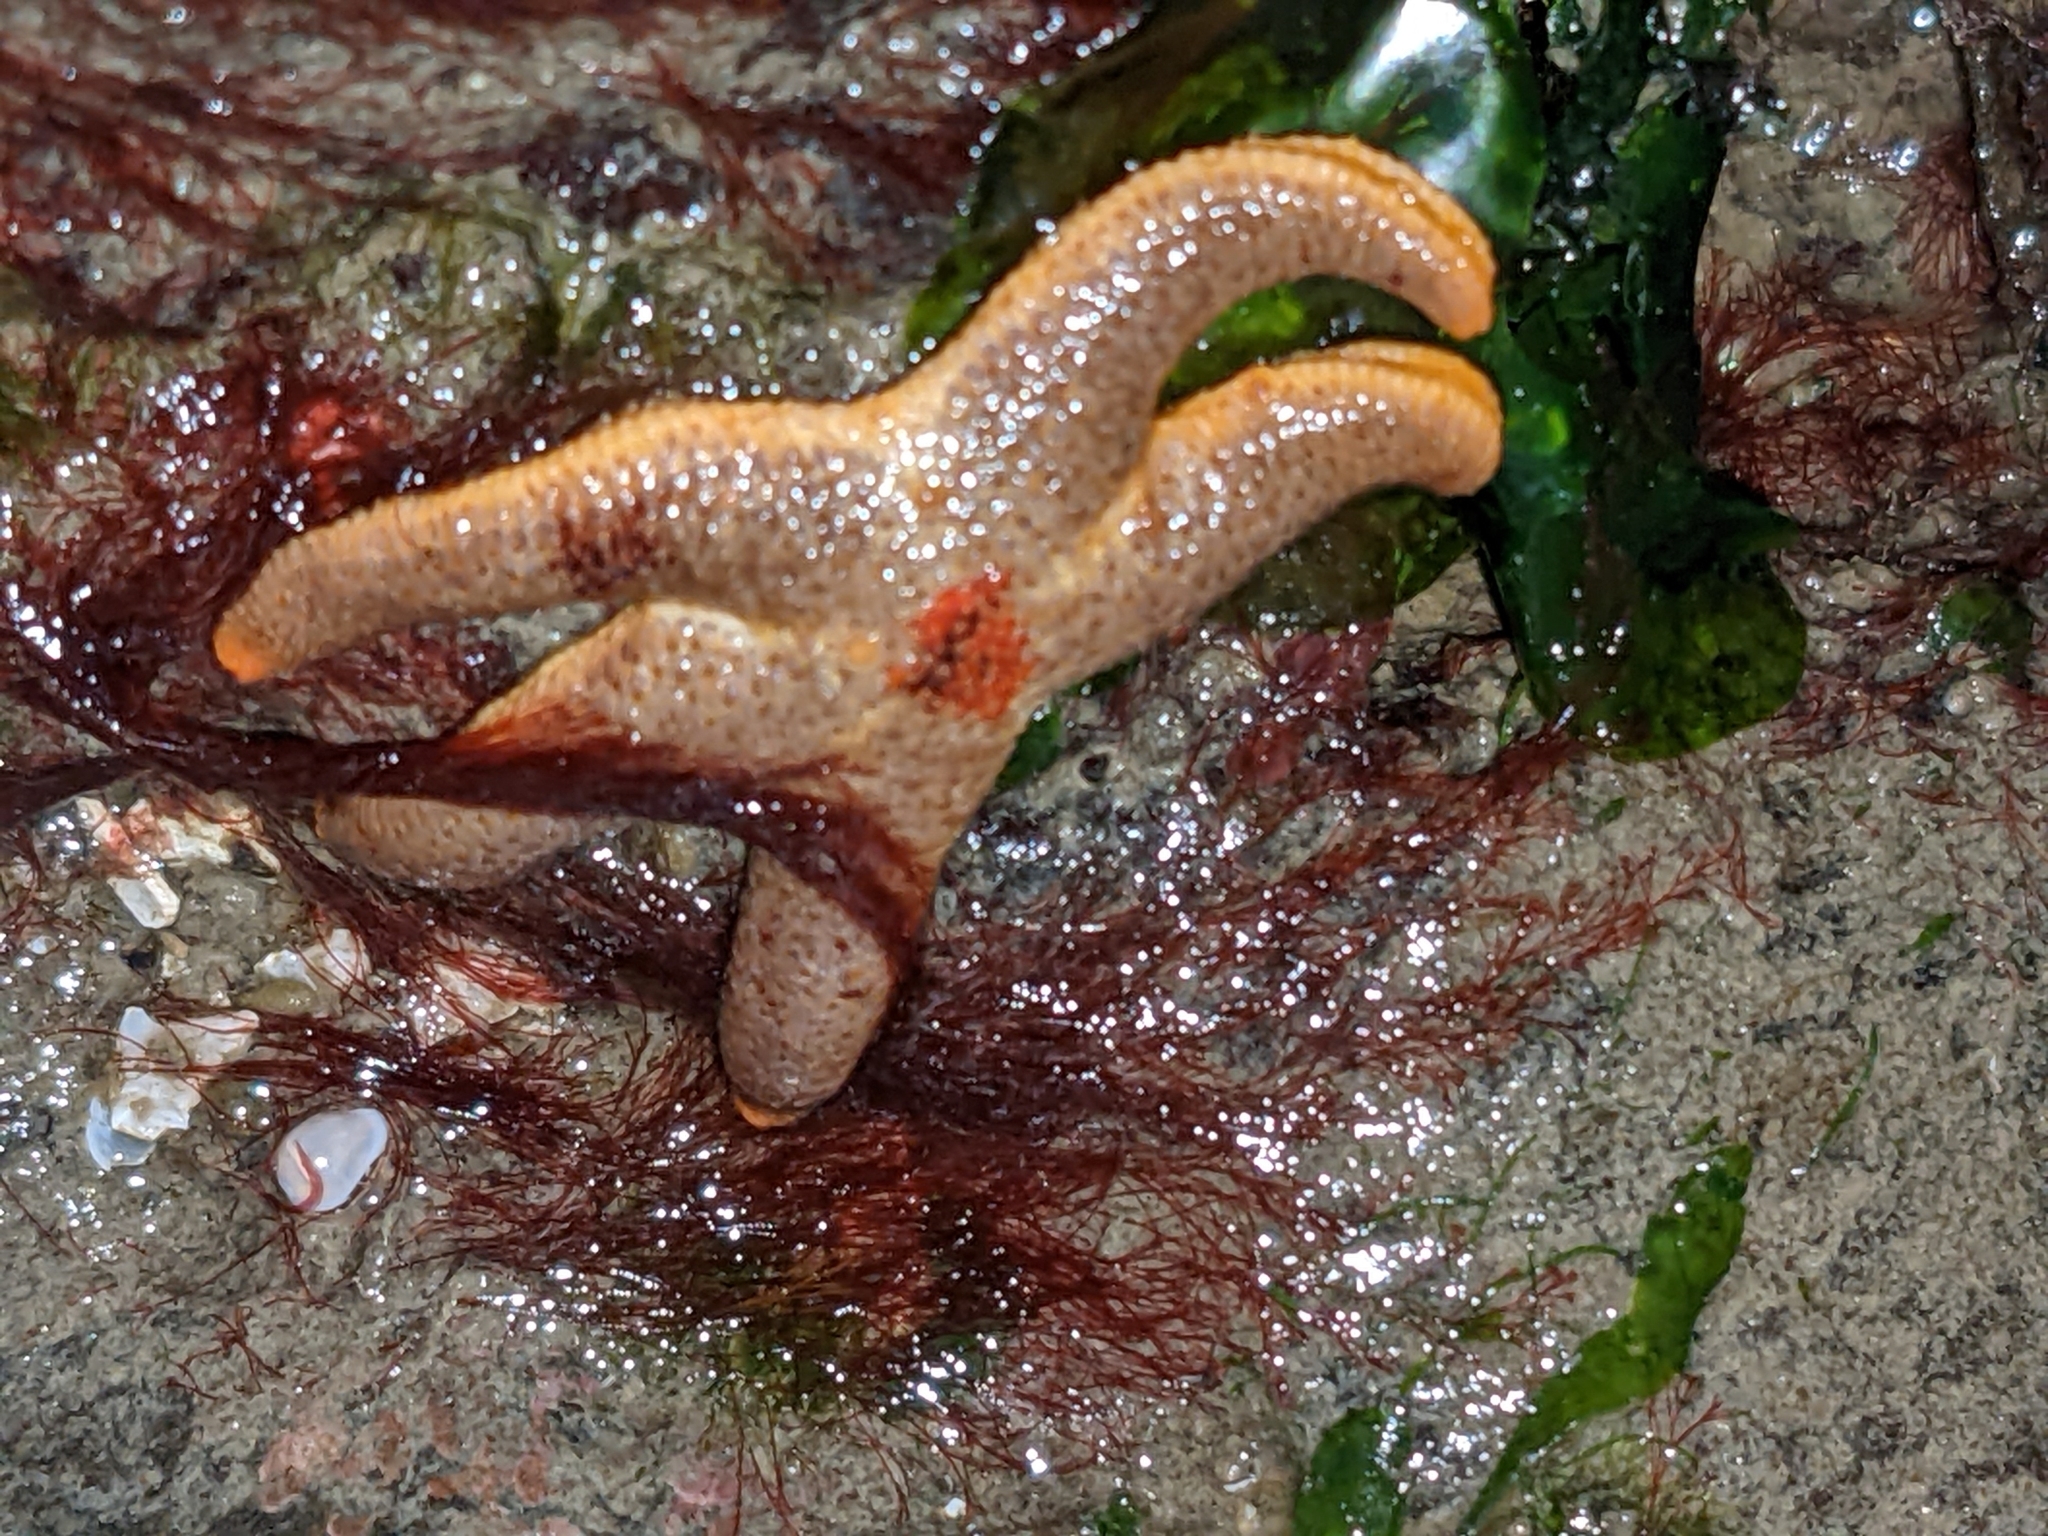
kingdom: Animalia
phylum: Echinodermata
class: Asteroidea
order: Spinulosida
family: Echinasteridae
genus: Henricia
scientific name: Henricia pumila
